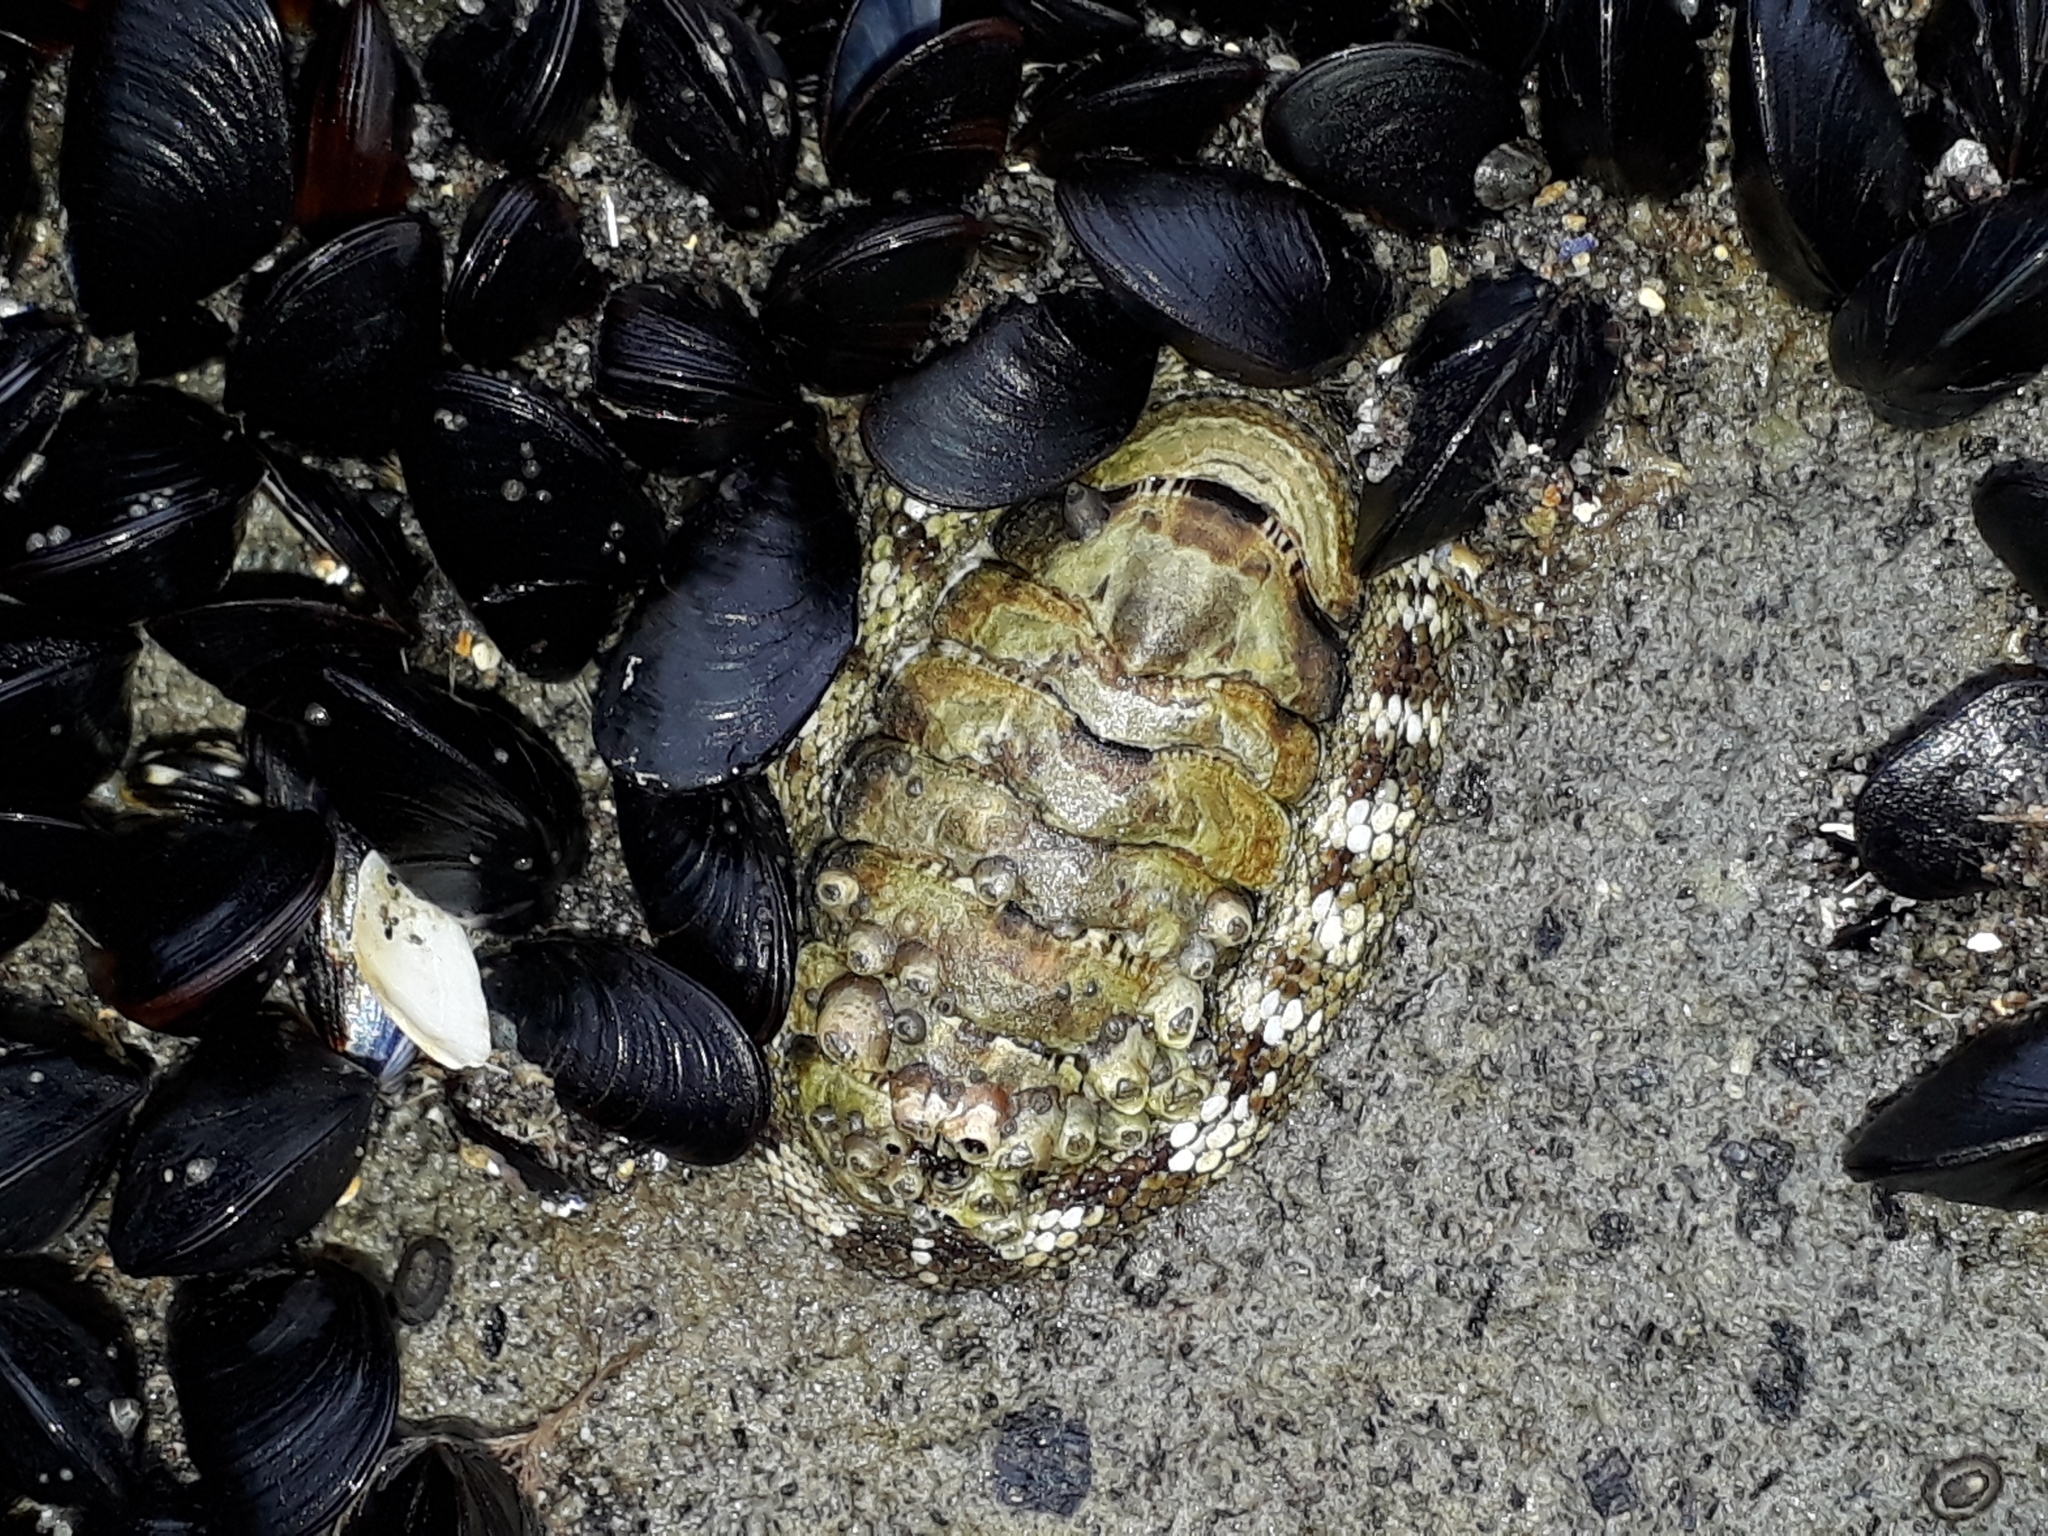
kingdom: Animalia
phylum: Mollusca
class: Polyplacophora
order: Chitonida
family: Chitonidae
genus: Sypharochiton
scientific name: Sypharochiton pelliserpentis
